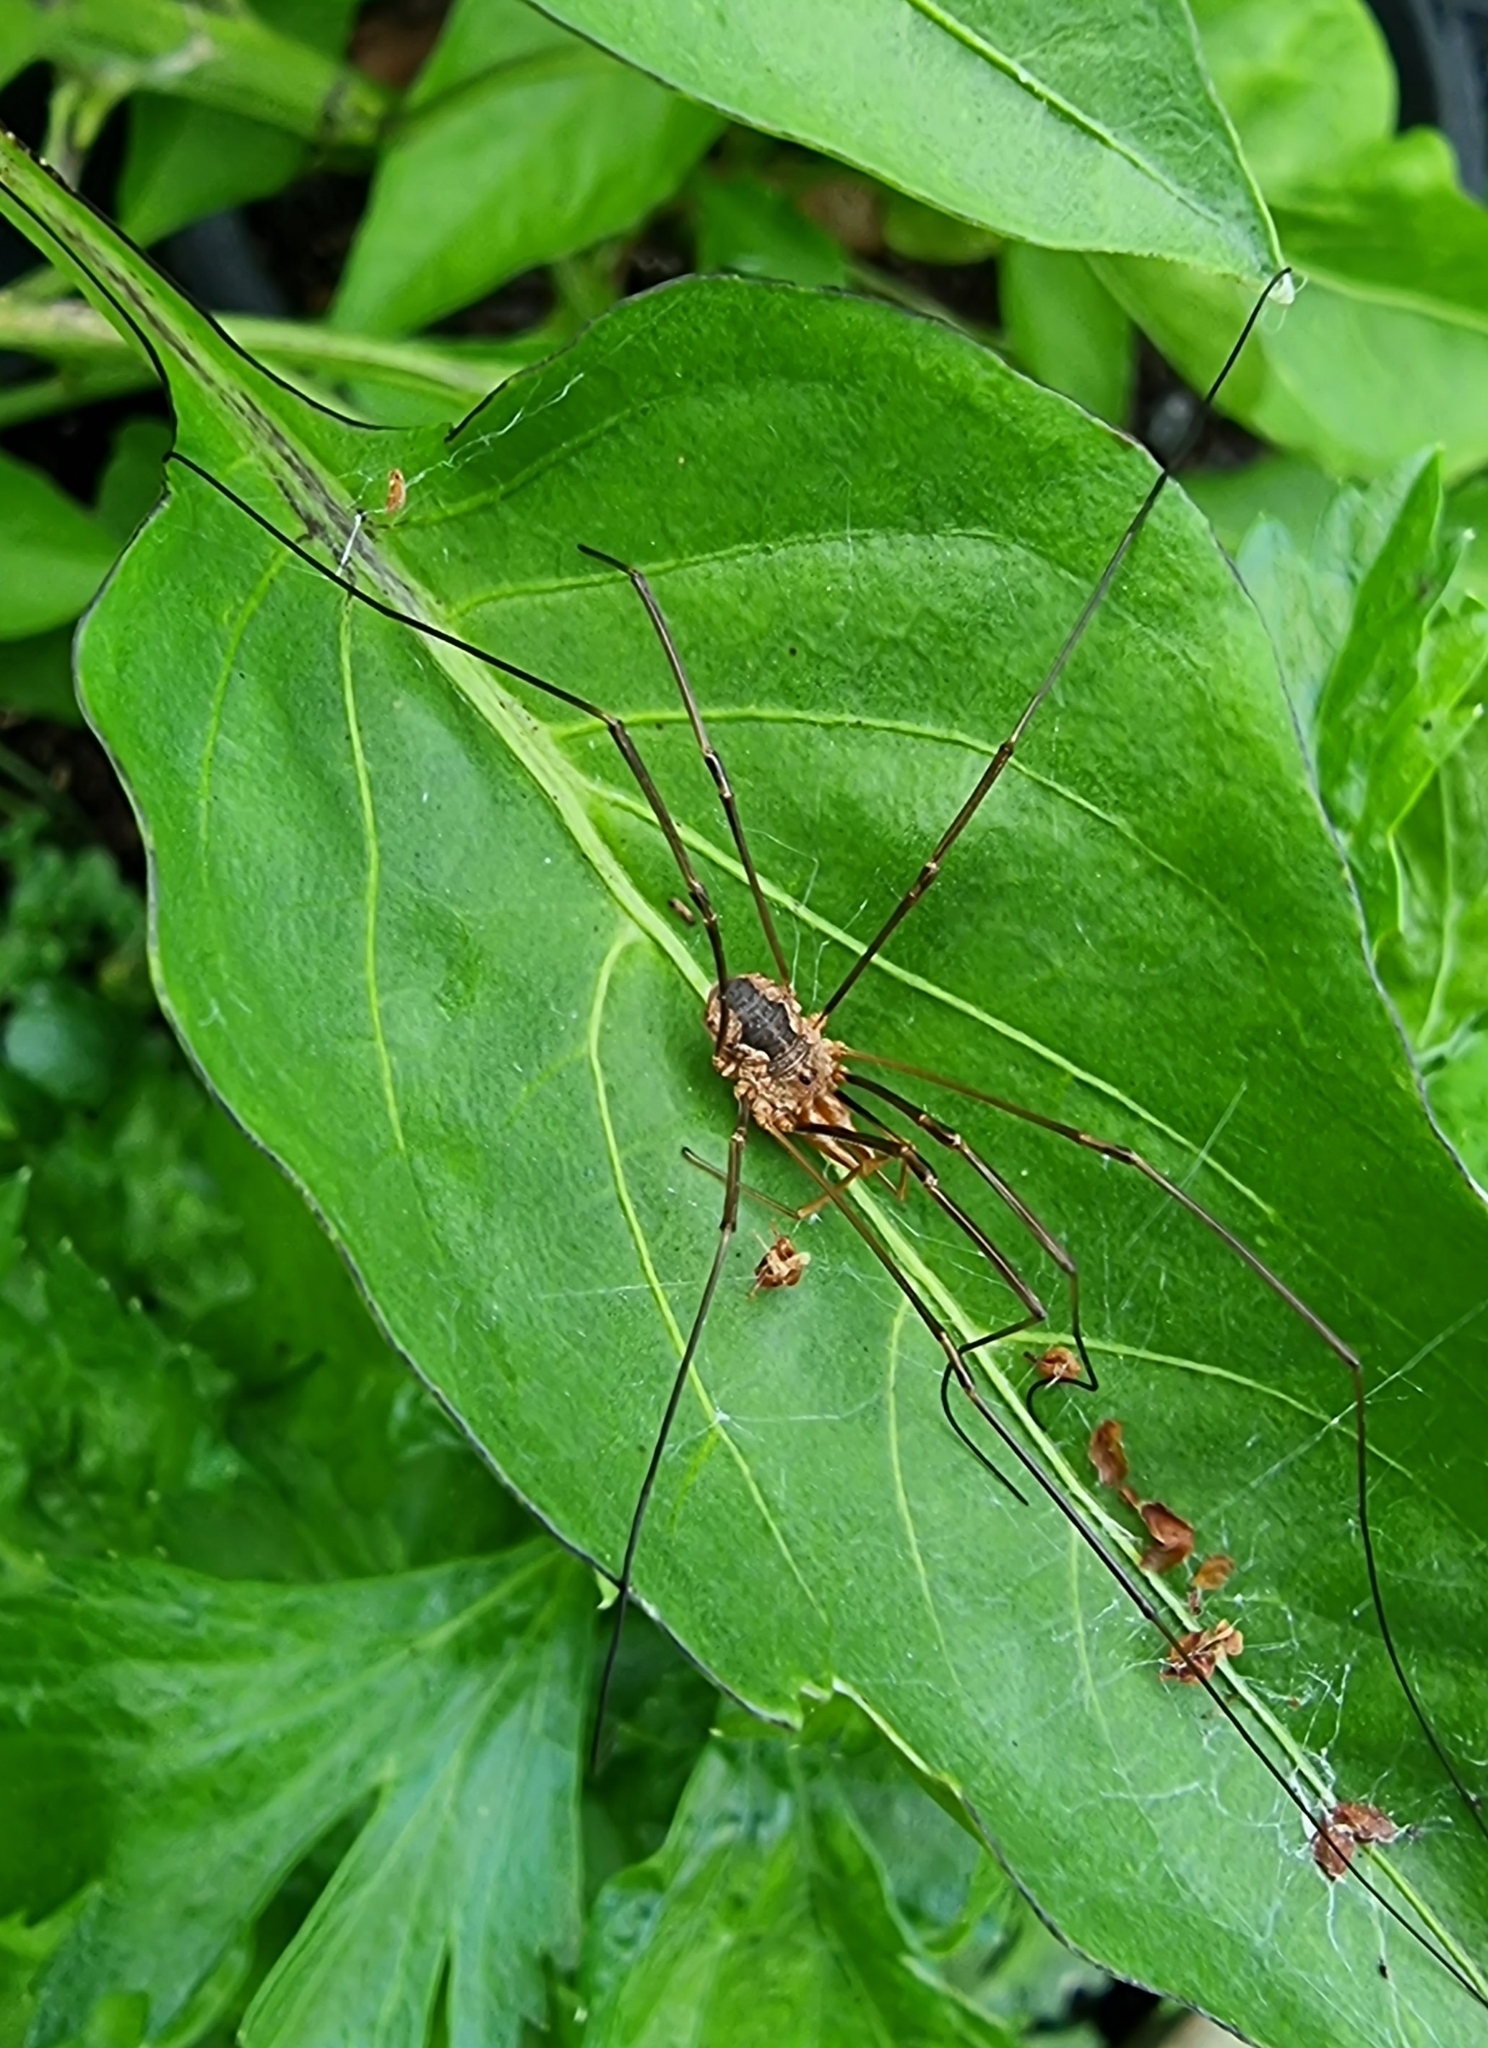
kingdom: Animalia
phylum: Arthropoda
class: Arachnida
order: Opiliones
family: Phalangiidae
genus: Phalangium
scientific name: Phalangium opilio
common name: Daddy longleg
